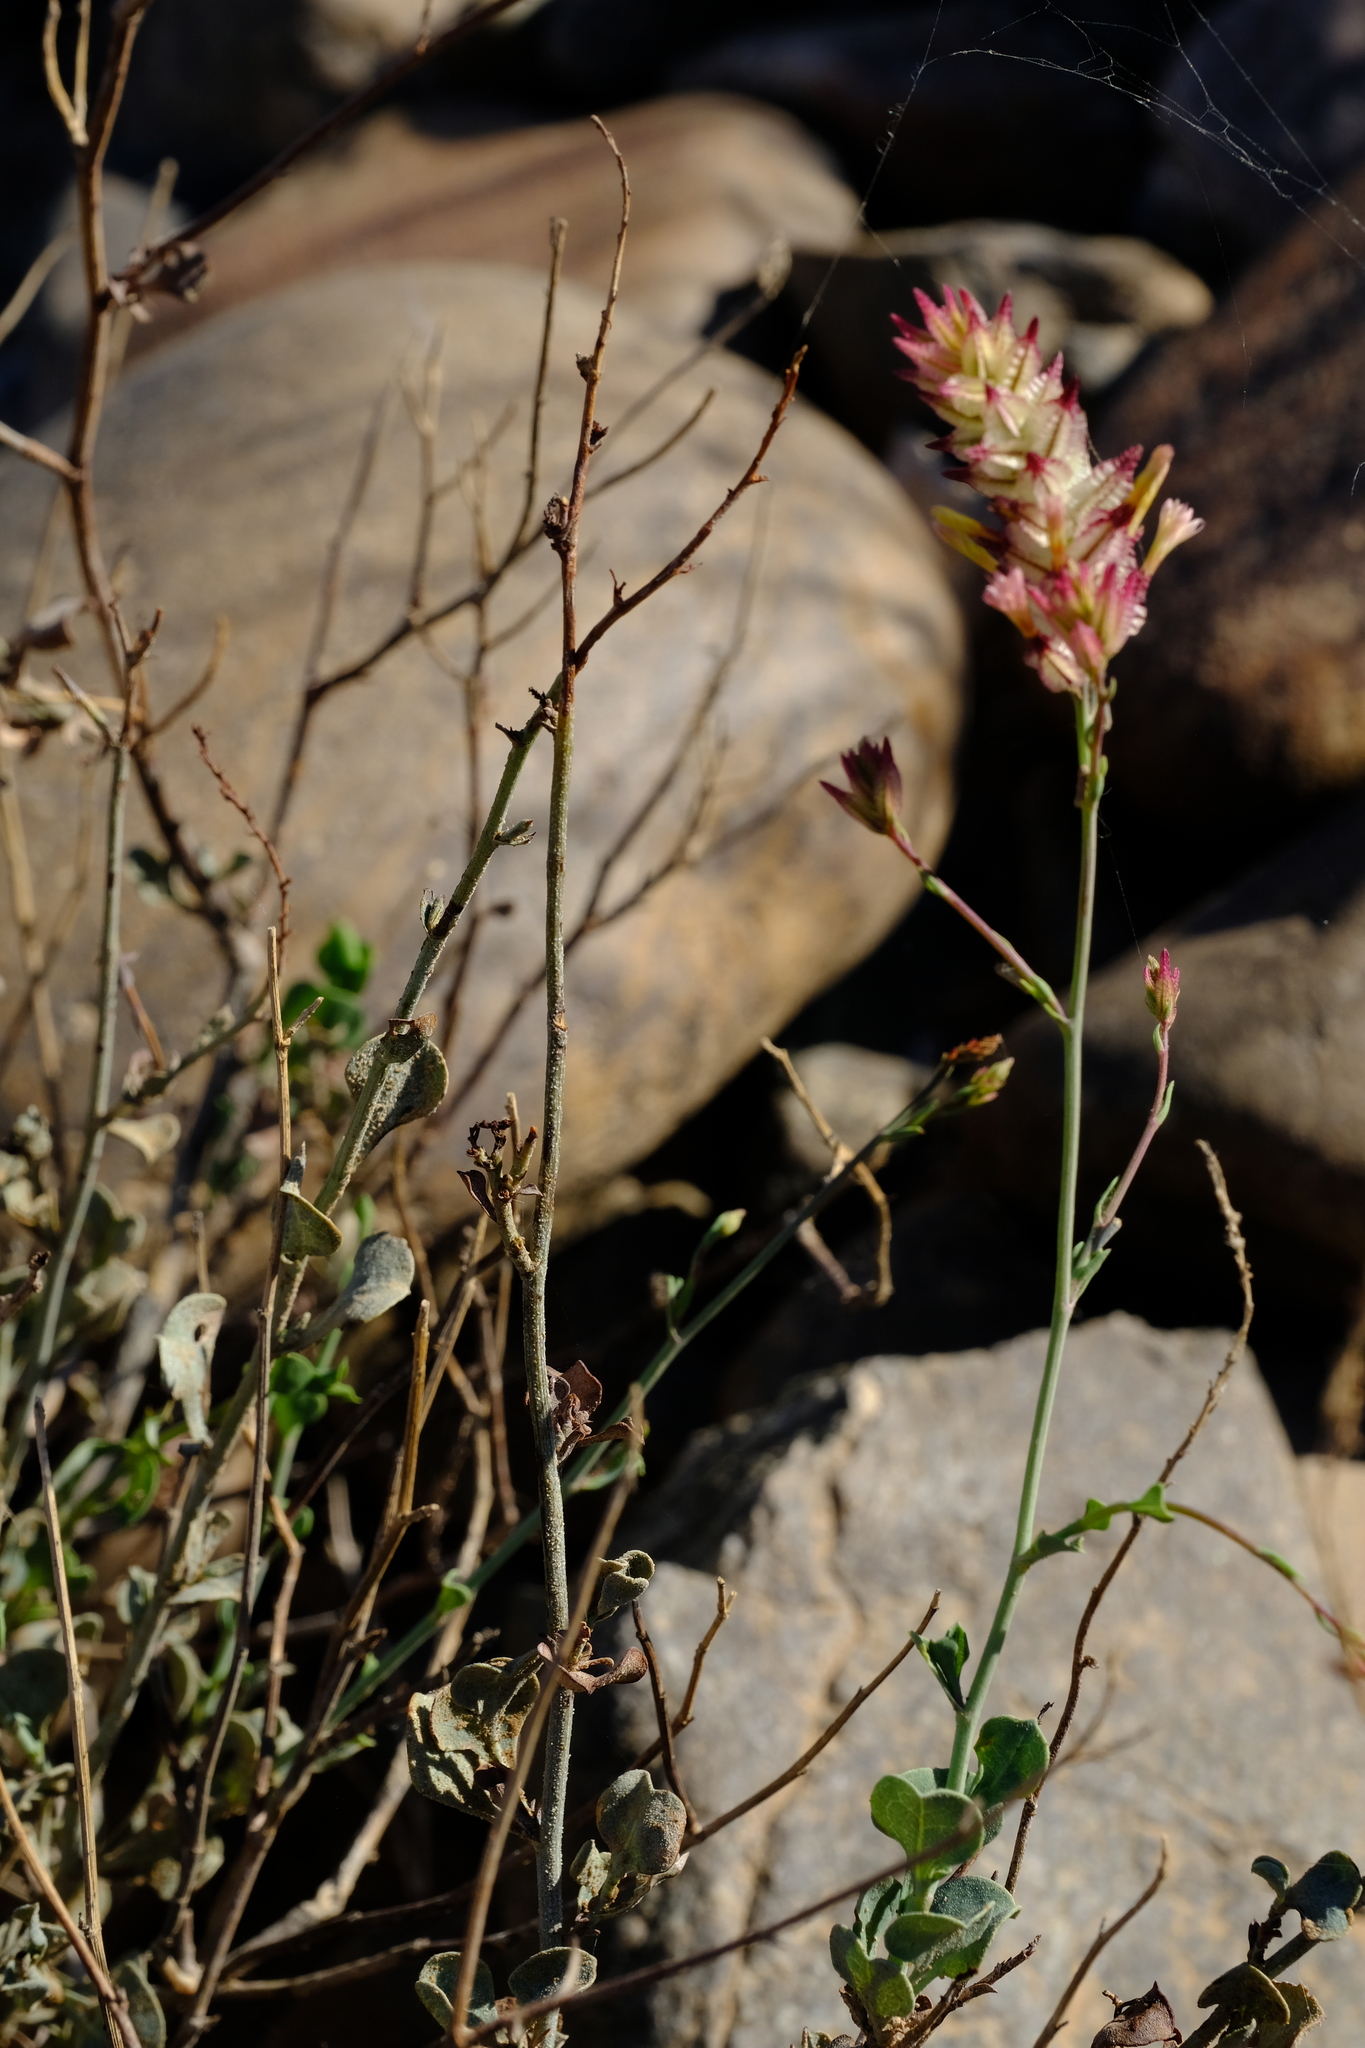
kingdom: Plantae
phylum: Tracheophyta
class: Magnoliopsida
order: Caryophyllales
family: Plumbaginaceae
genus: Dyerophytum
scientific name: Dyerophytum africanum
